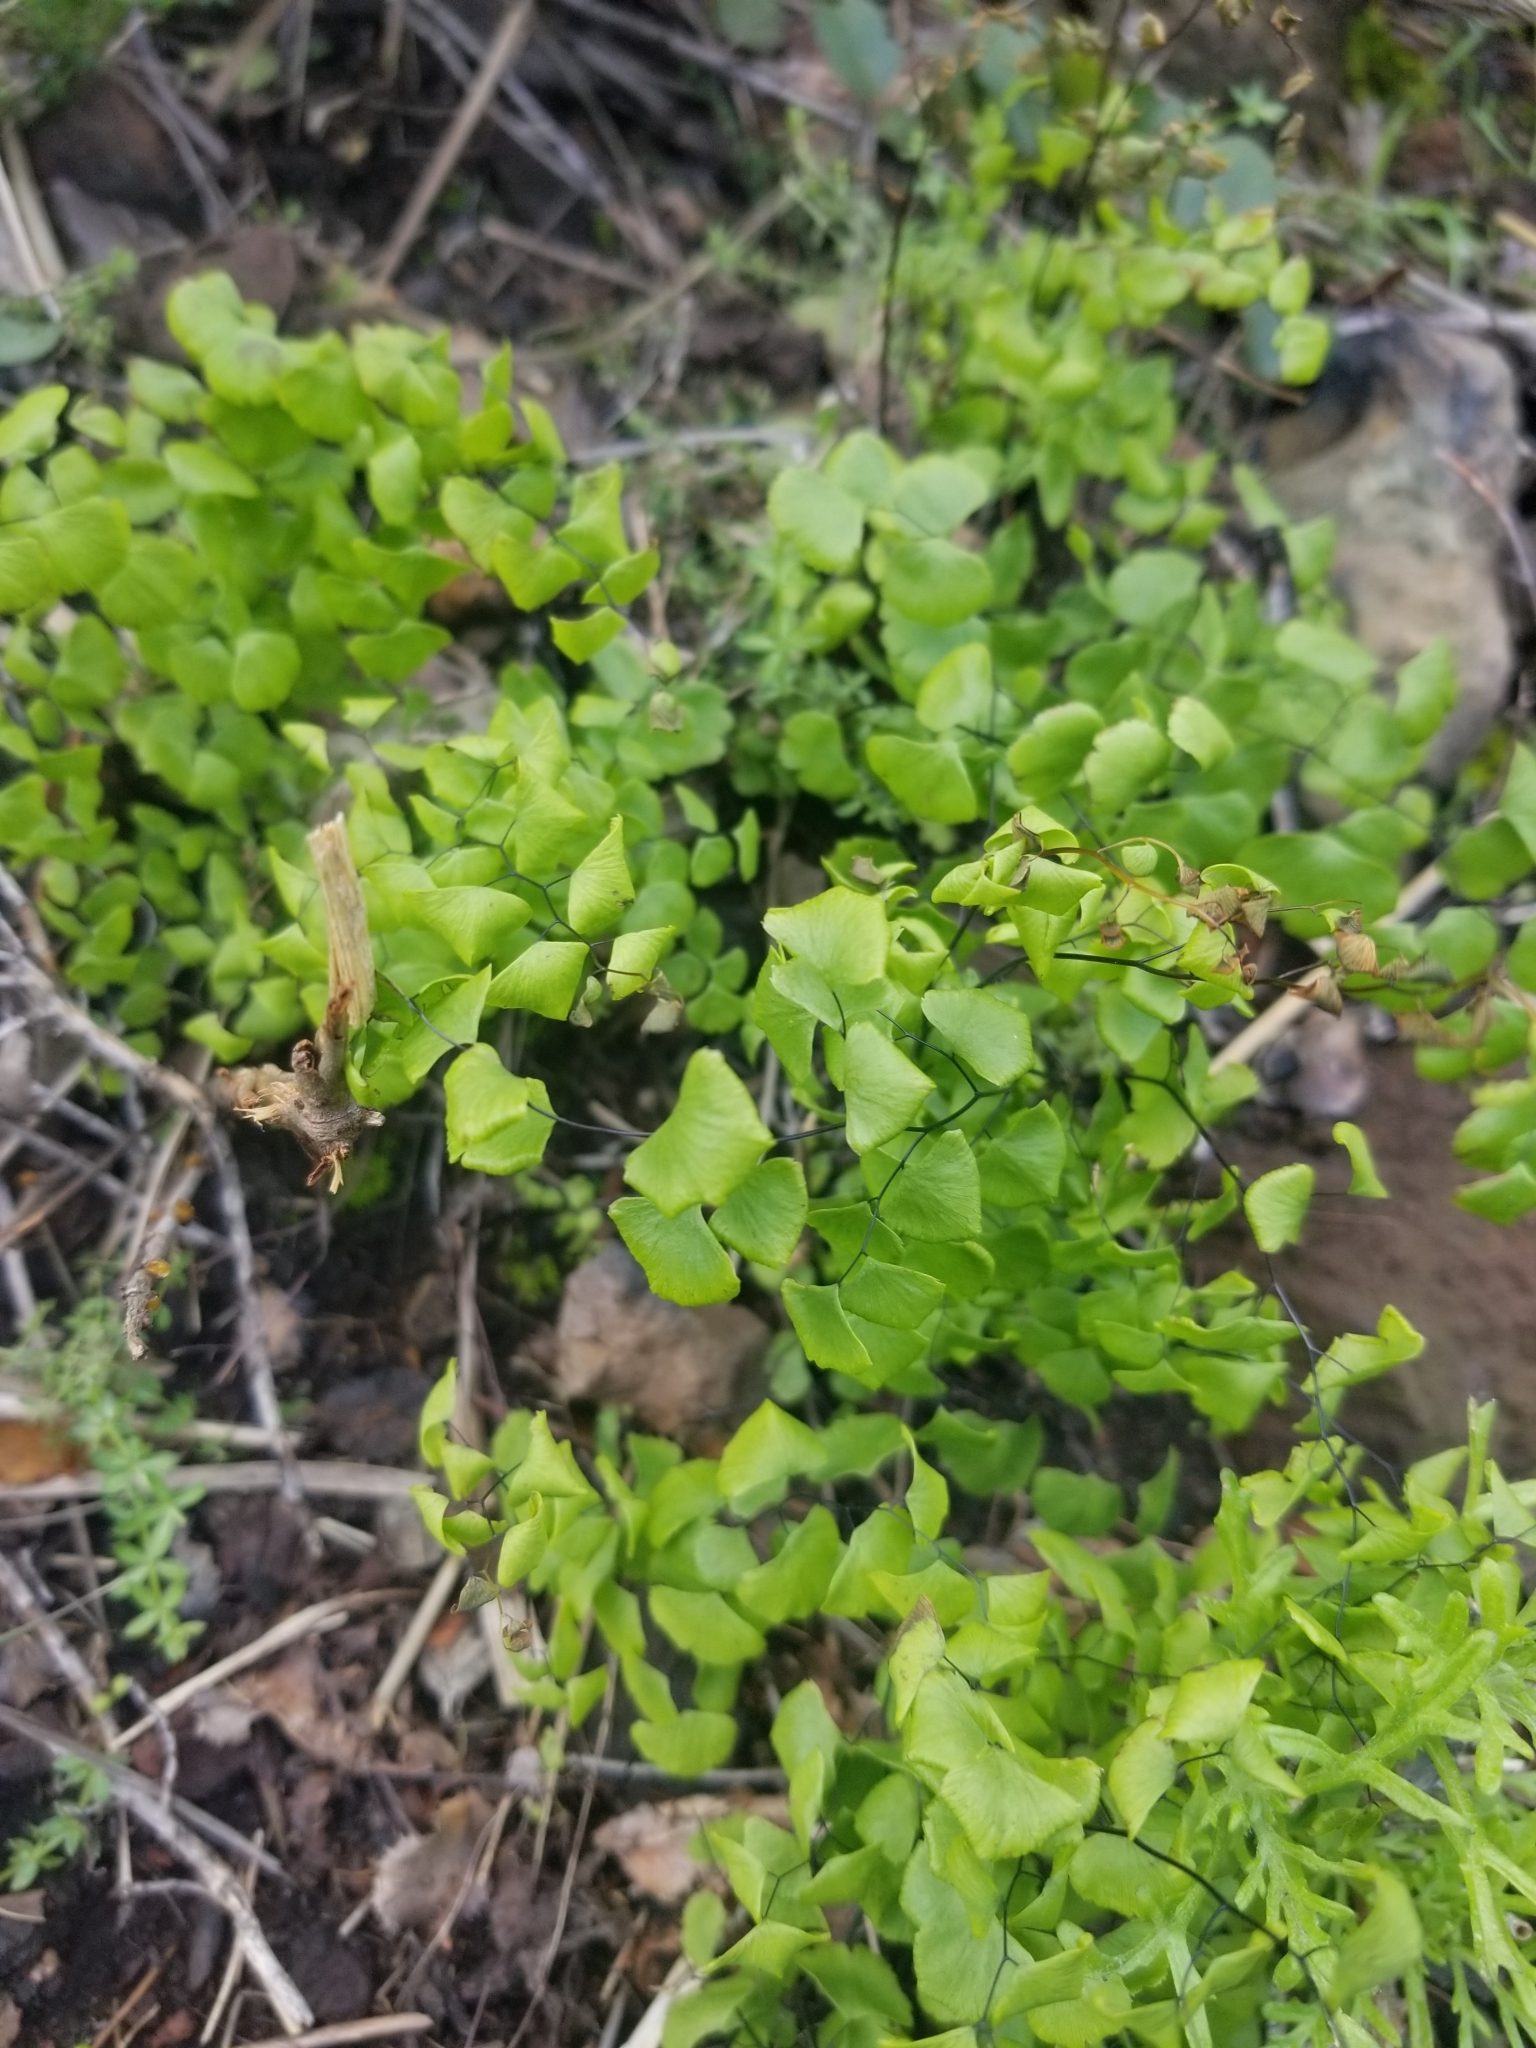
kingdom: Plantae
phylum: Tracheophyta
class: Polypodiopsida
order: Polypodiales
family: Pteridaceae
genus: Adiantum
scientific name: Adiantum jordanii
